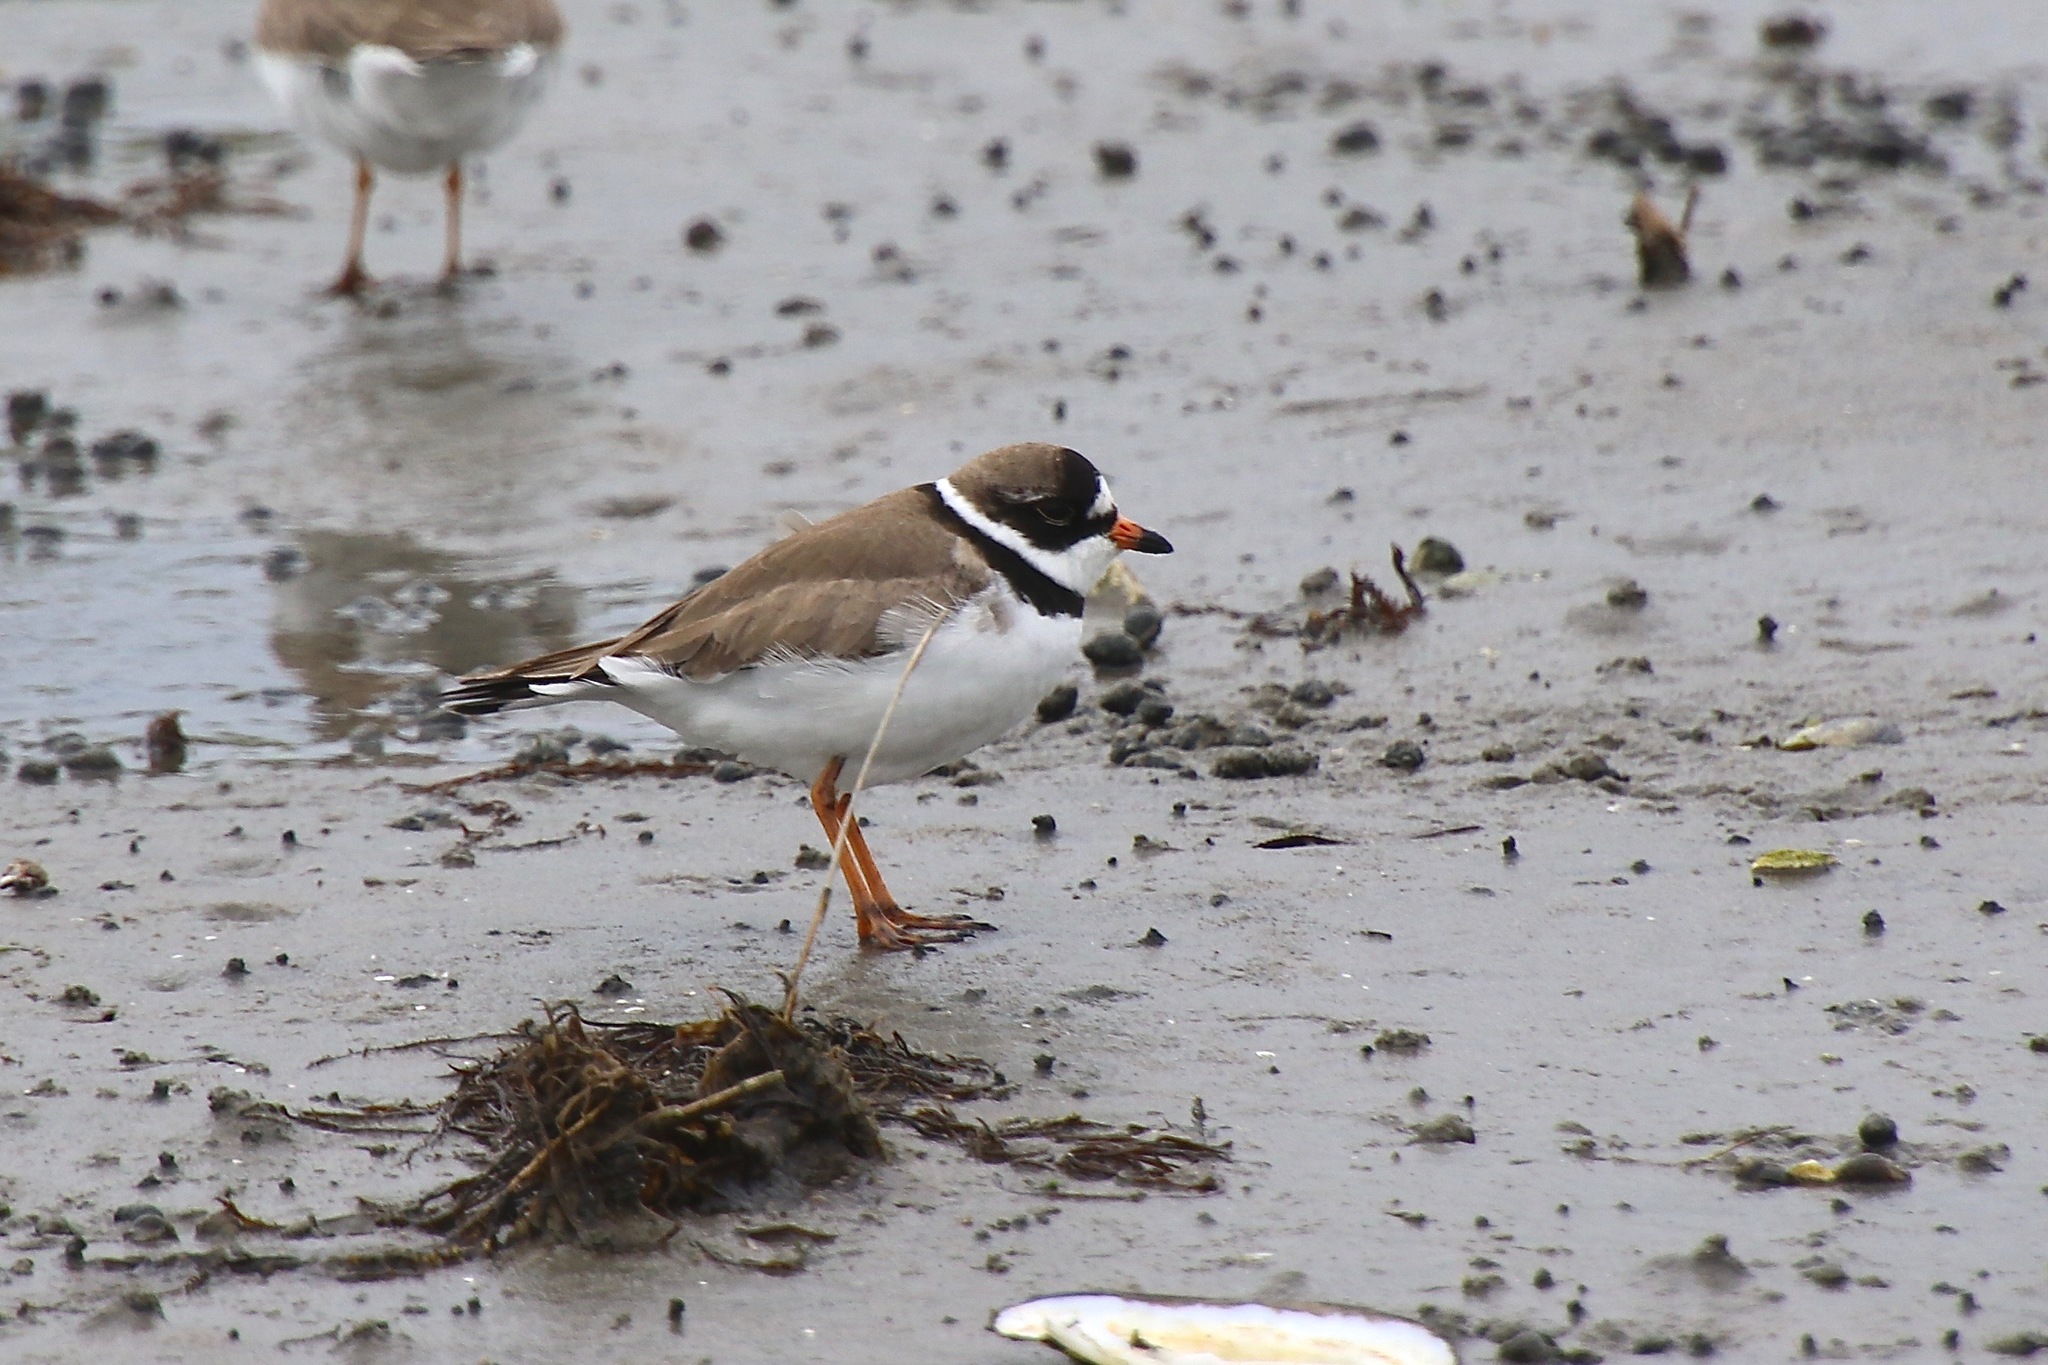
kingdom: Animalia
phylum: Chordata
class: Aves
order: Charadriiformes
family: Charadriidae
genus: Charadrius
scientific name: Charadrius semipalmatus
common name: Semipalmated plover
